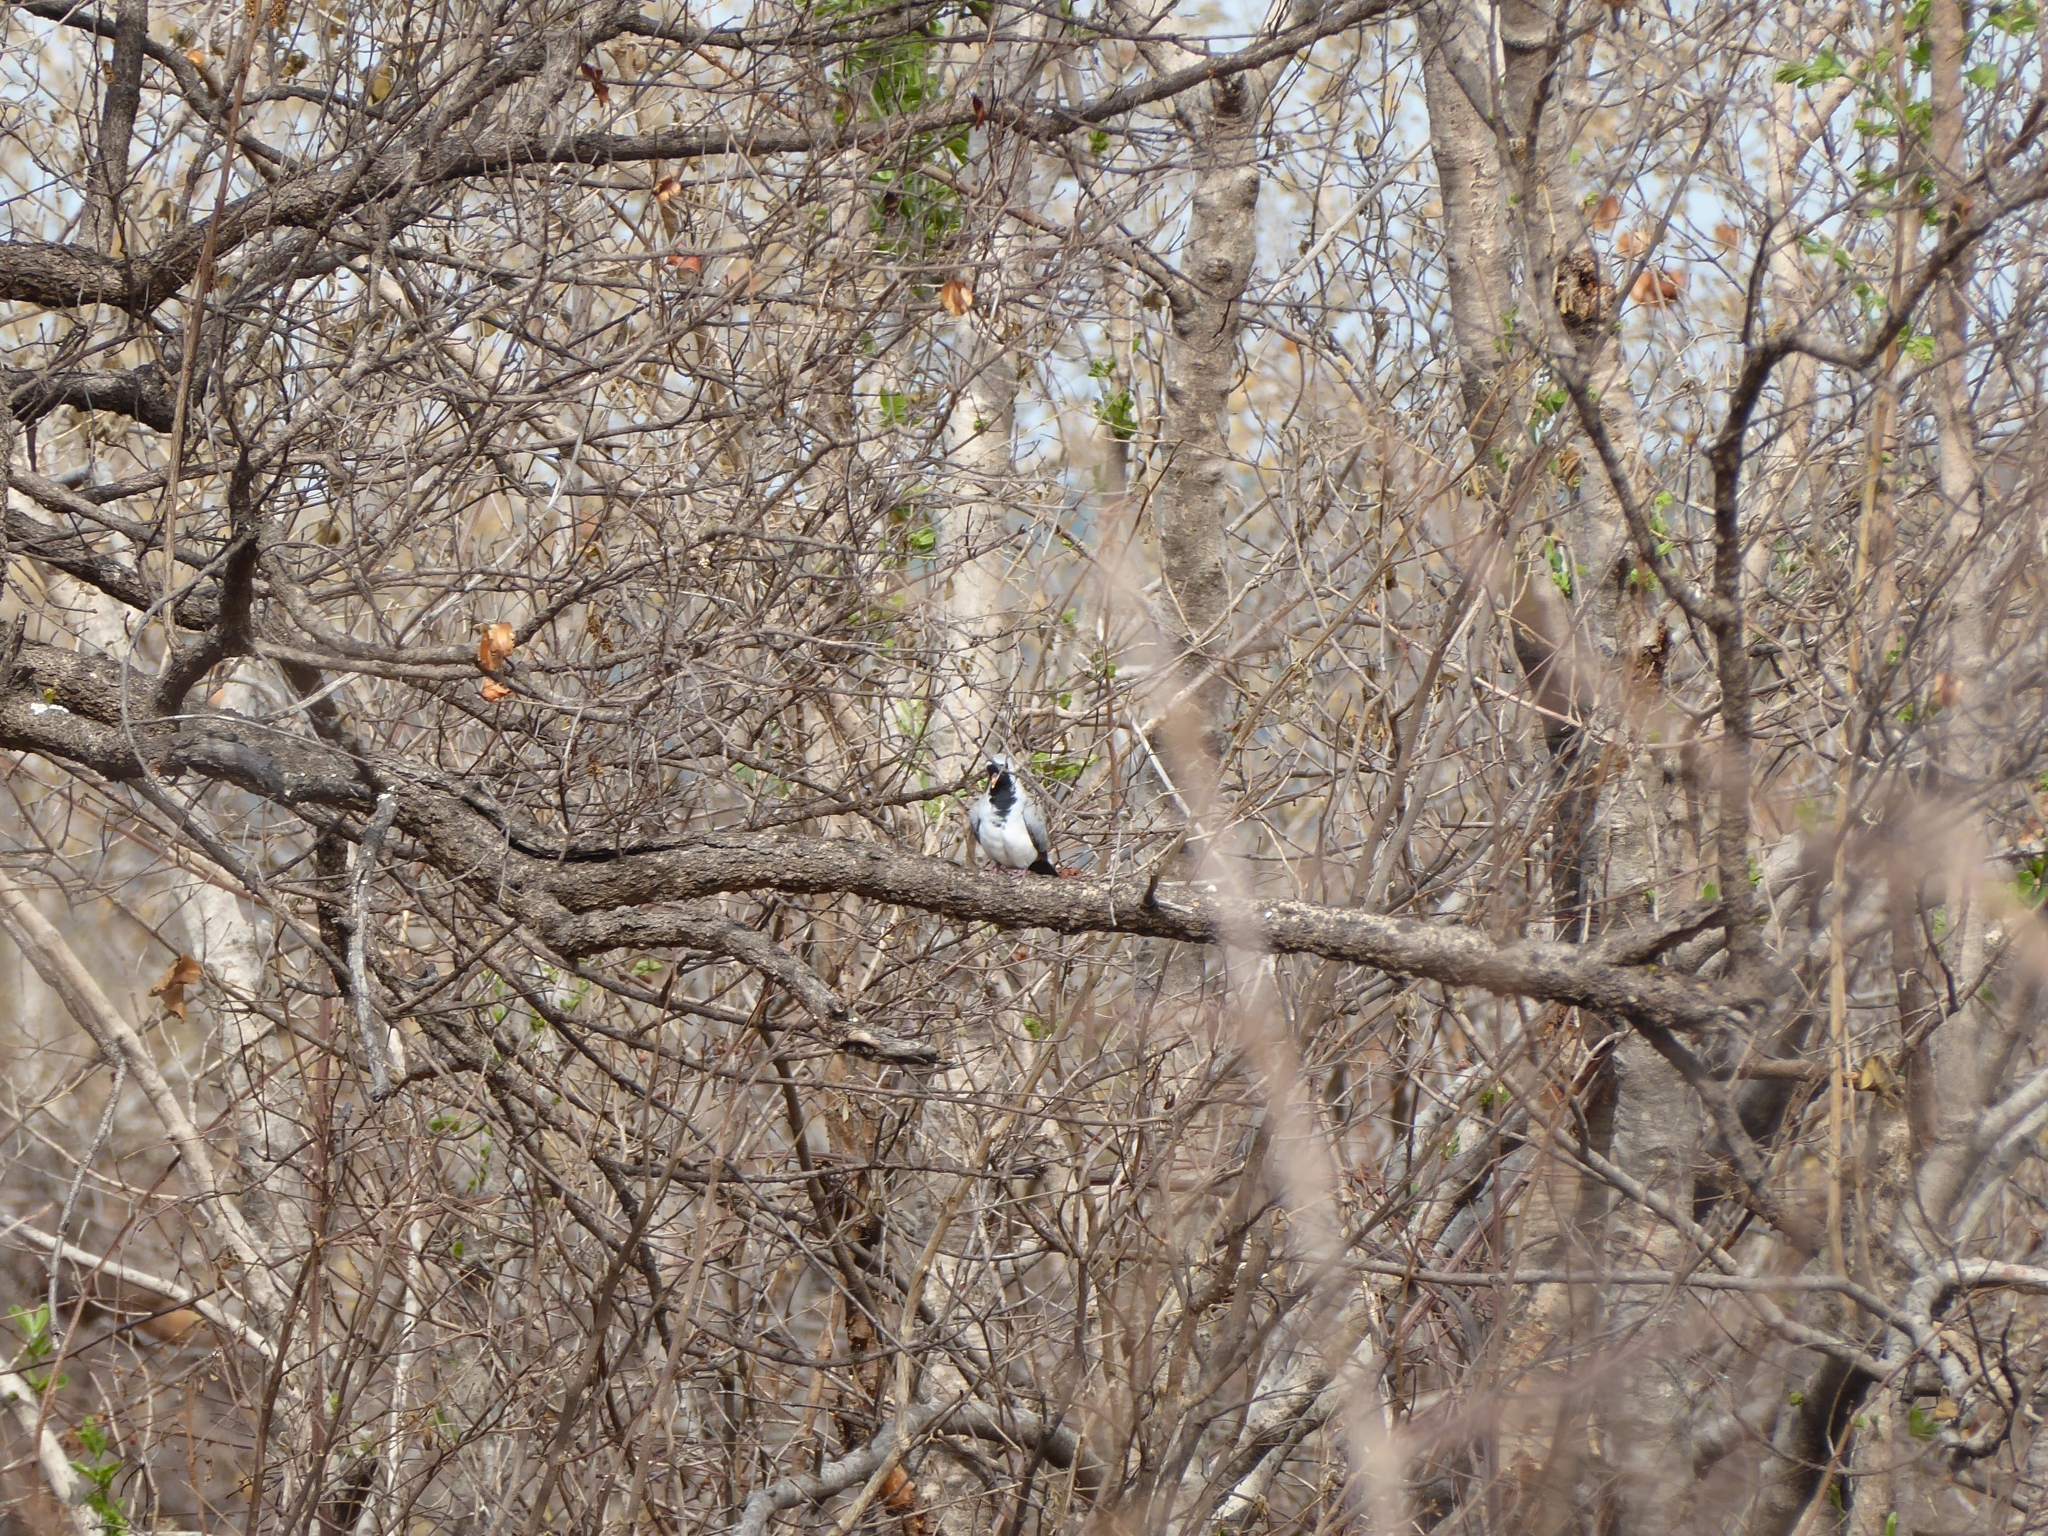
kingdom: Animalia
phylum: Chordata
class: Aves
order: Columbiformes
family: Columbidae
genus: Oena
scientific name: Oena capensis
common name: Namaqua dove
